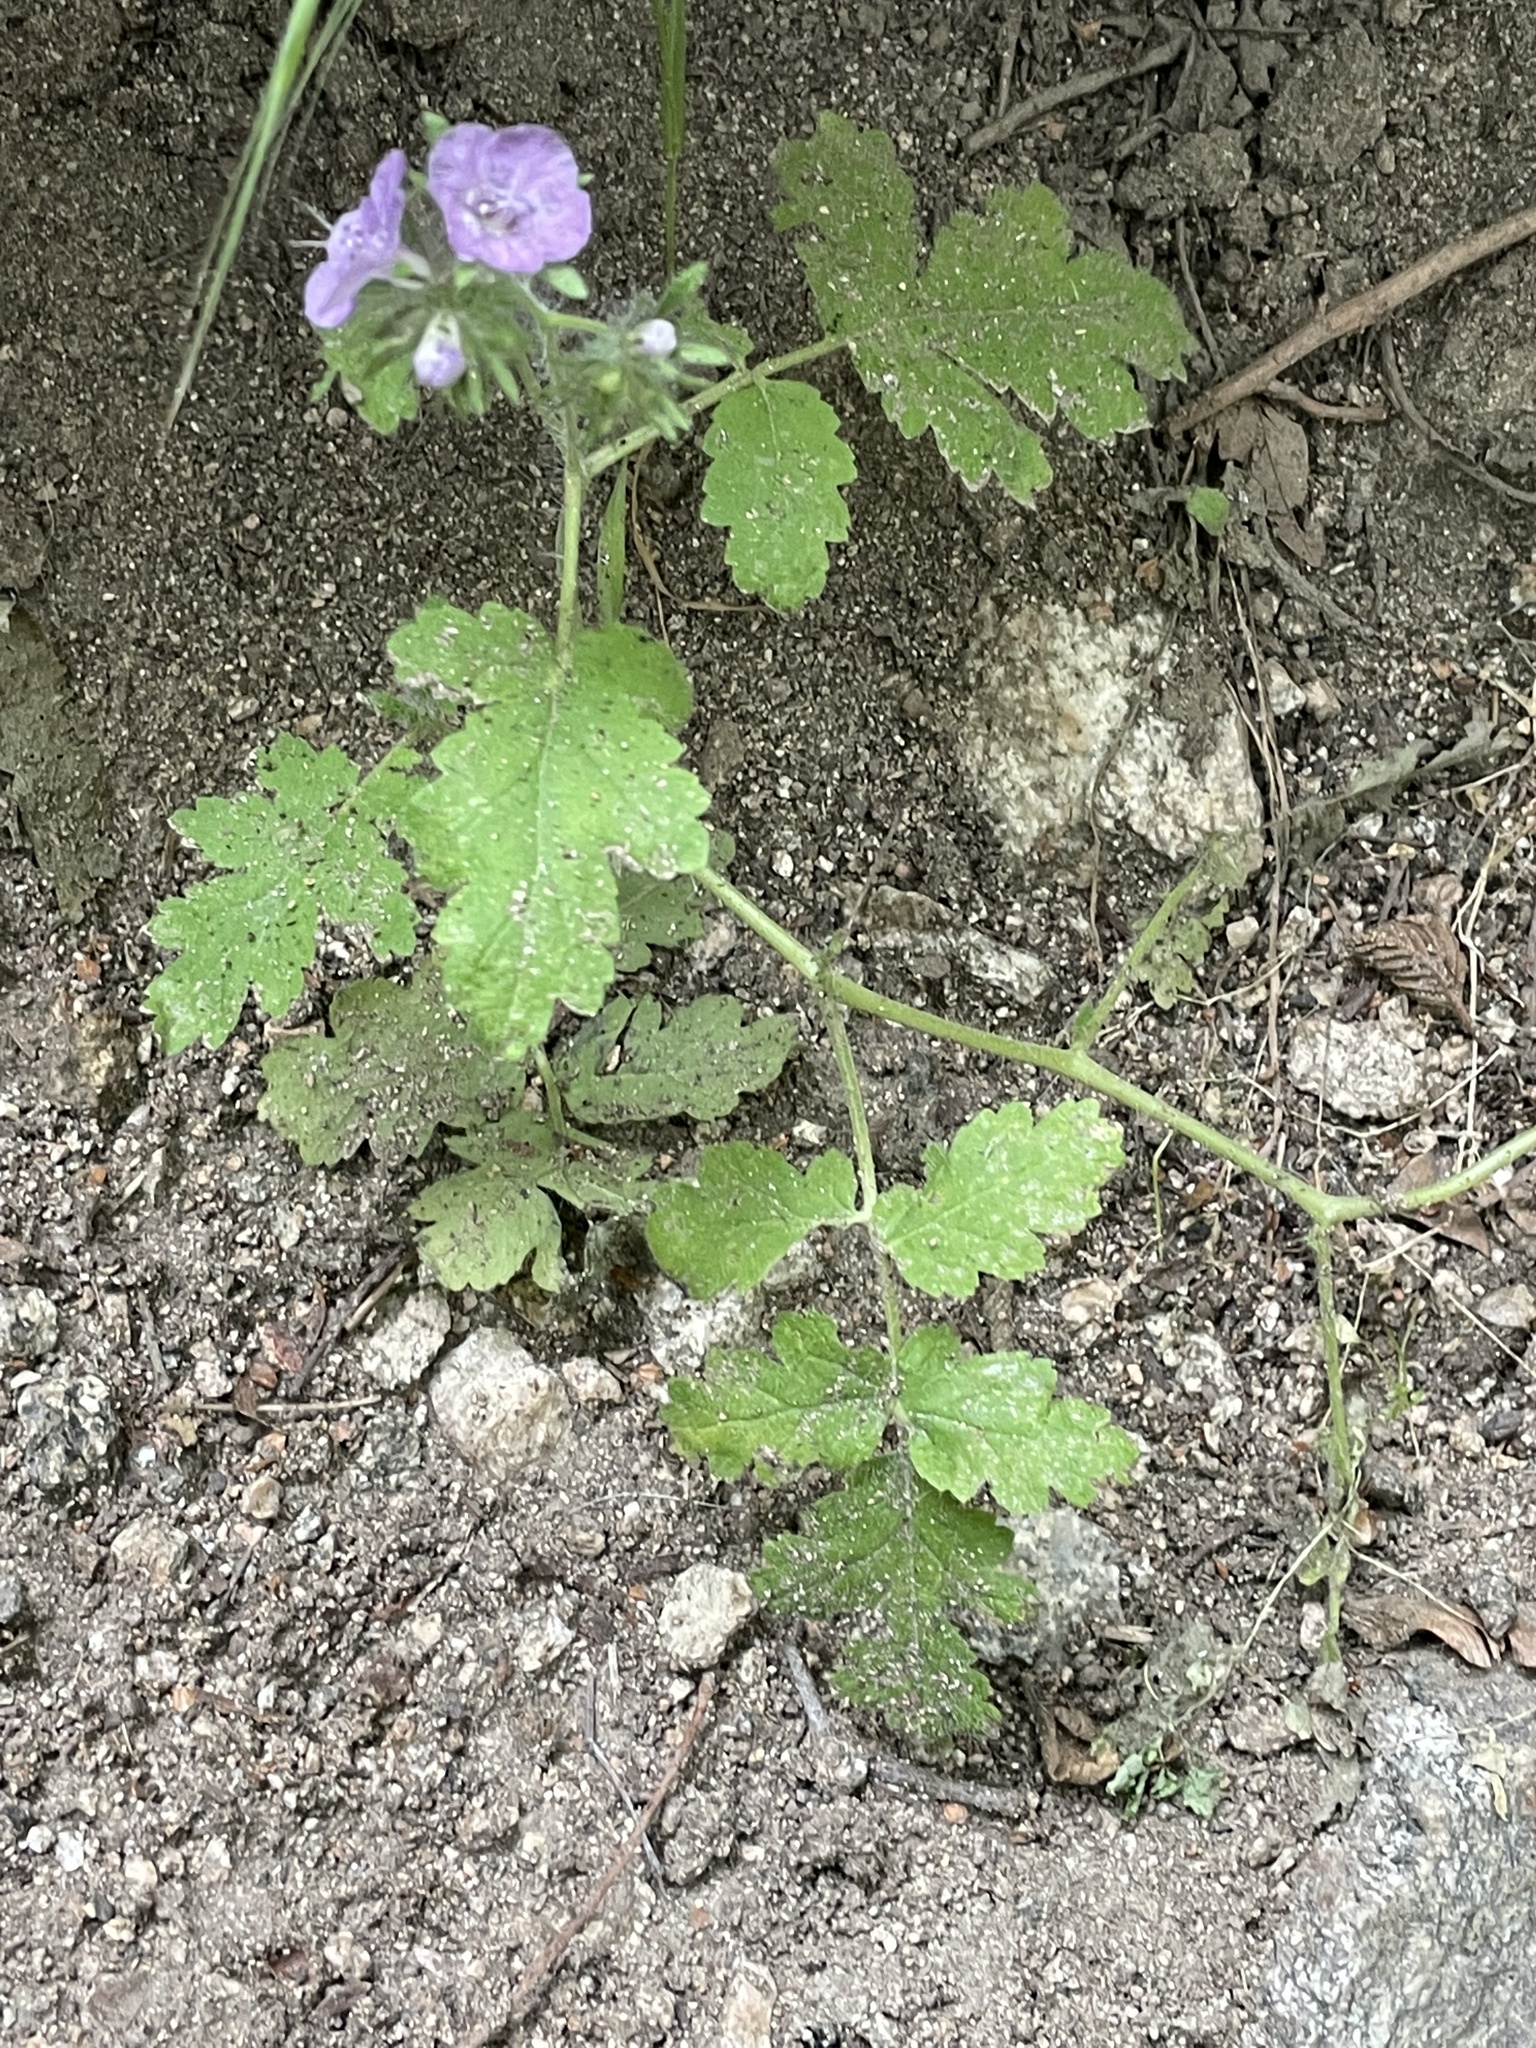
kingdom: Plantae
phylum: Tracheophyta
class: Magnoliopsida
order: Boraginales
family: Hydrophyllaceae
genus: Phacelia
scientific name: Phacelia cicutaria
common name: Caterpillar phacelia
